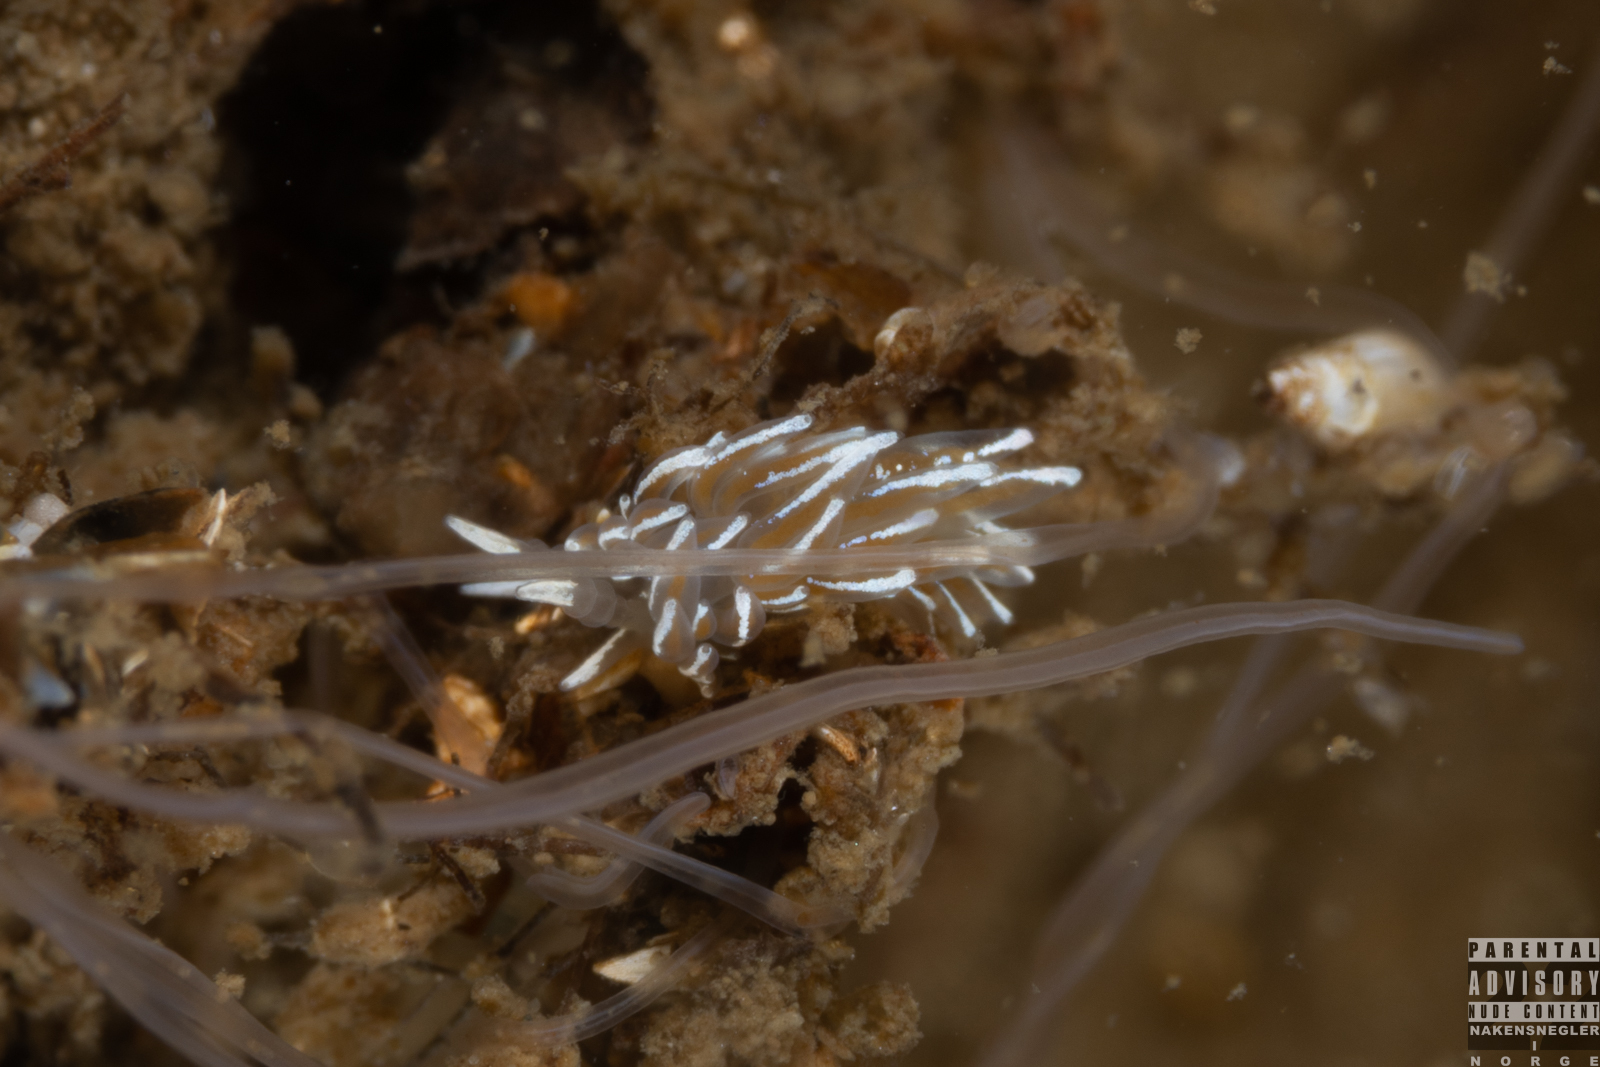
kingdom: Animalia
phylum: Mollusca
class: Gastropoda
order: Nudibranchia
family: Facelinidae
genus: Favorinus
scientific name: Favorinus blianus
